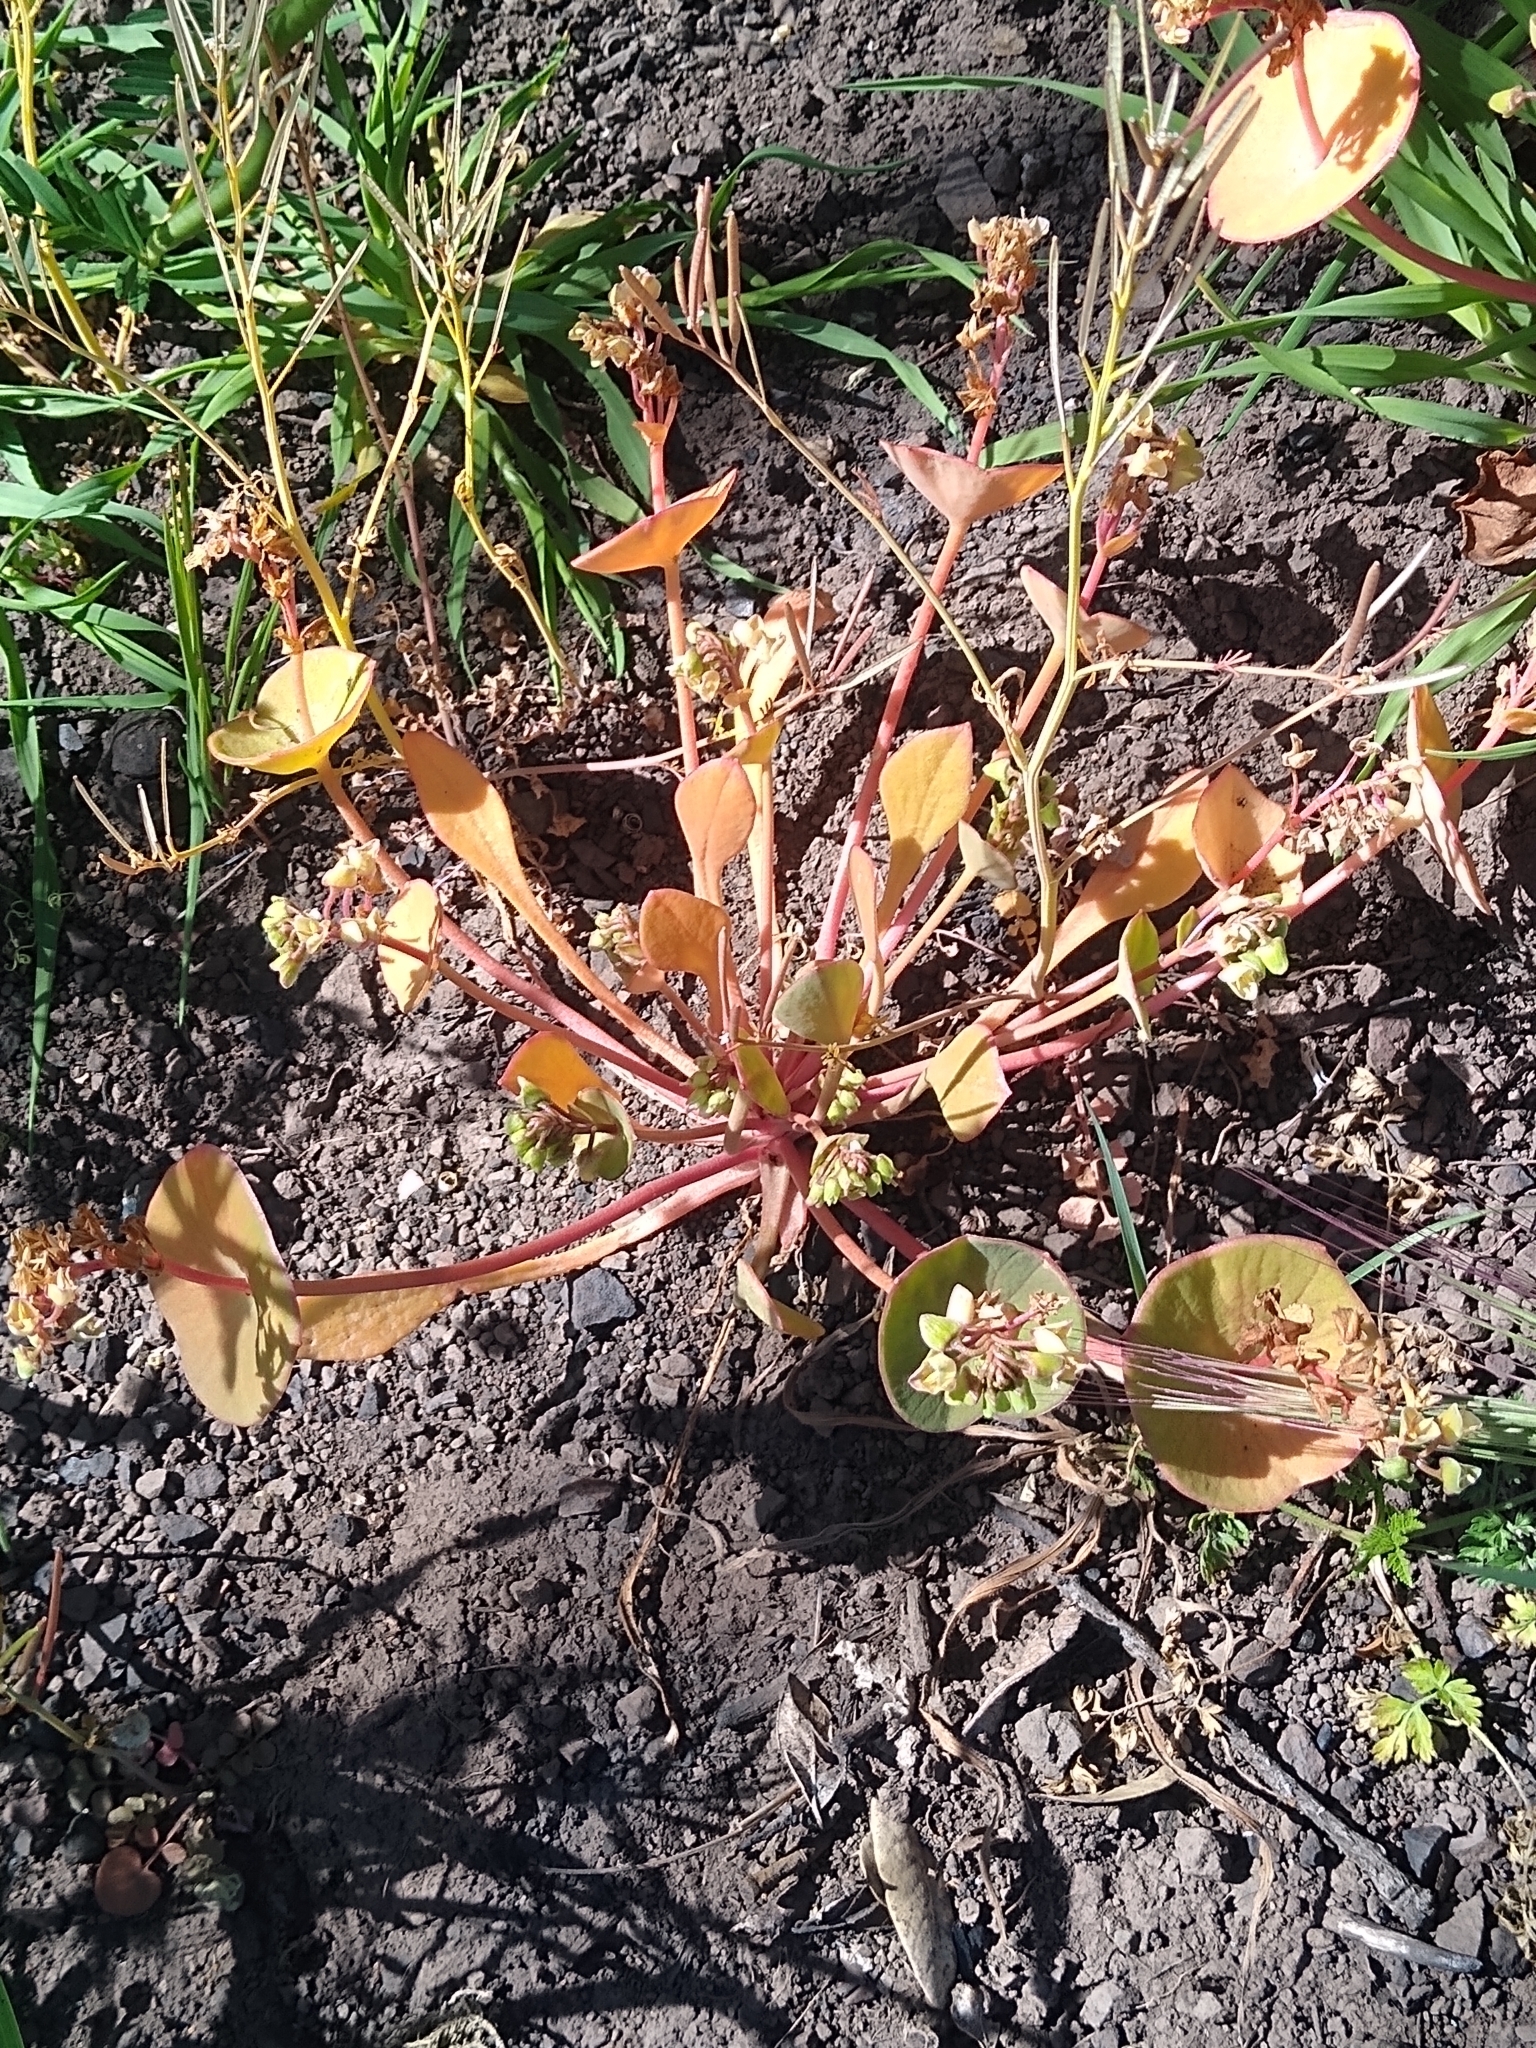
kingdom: Plantae
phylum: Tracheophyta
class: Magnoliopsida
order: Caryophyllales
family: Montiaceae
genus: Claytonia
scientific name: Claytonia perfoliata
